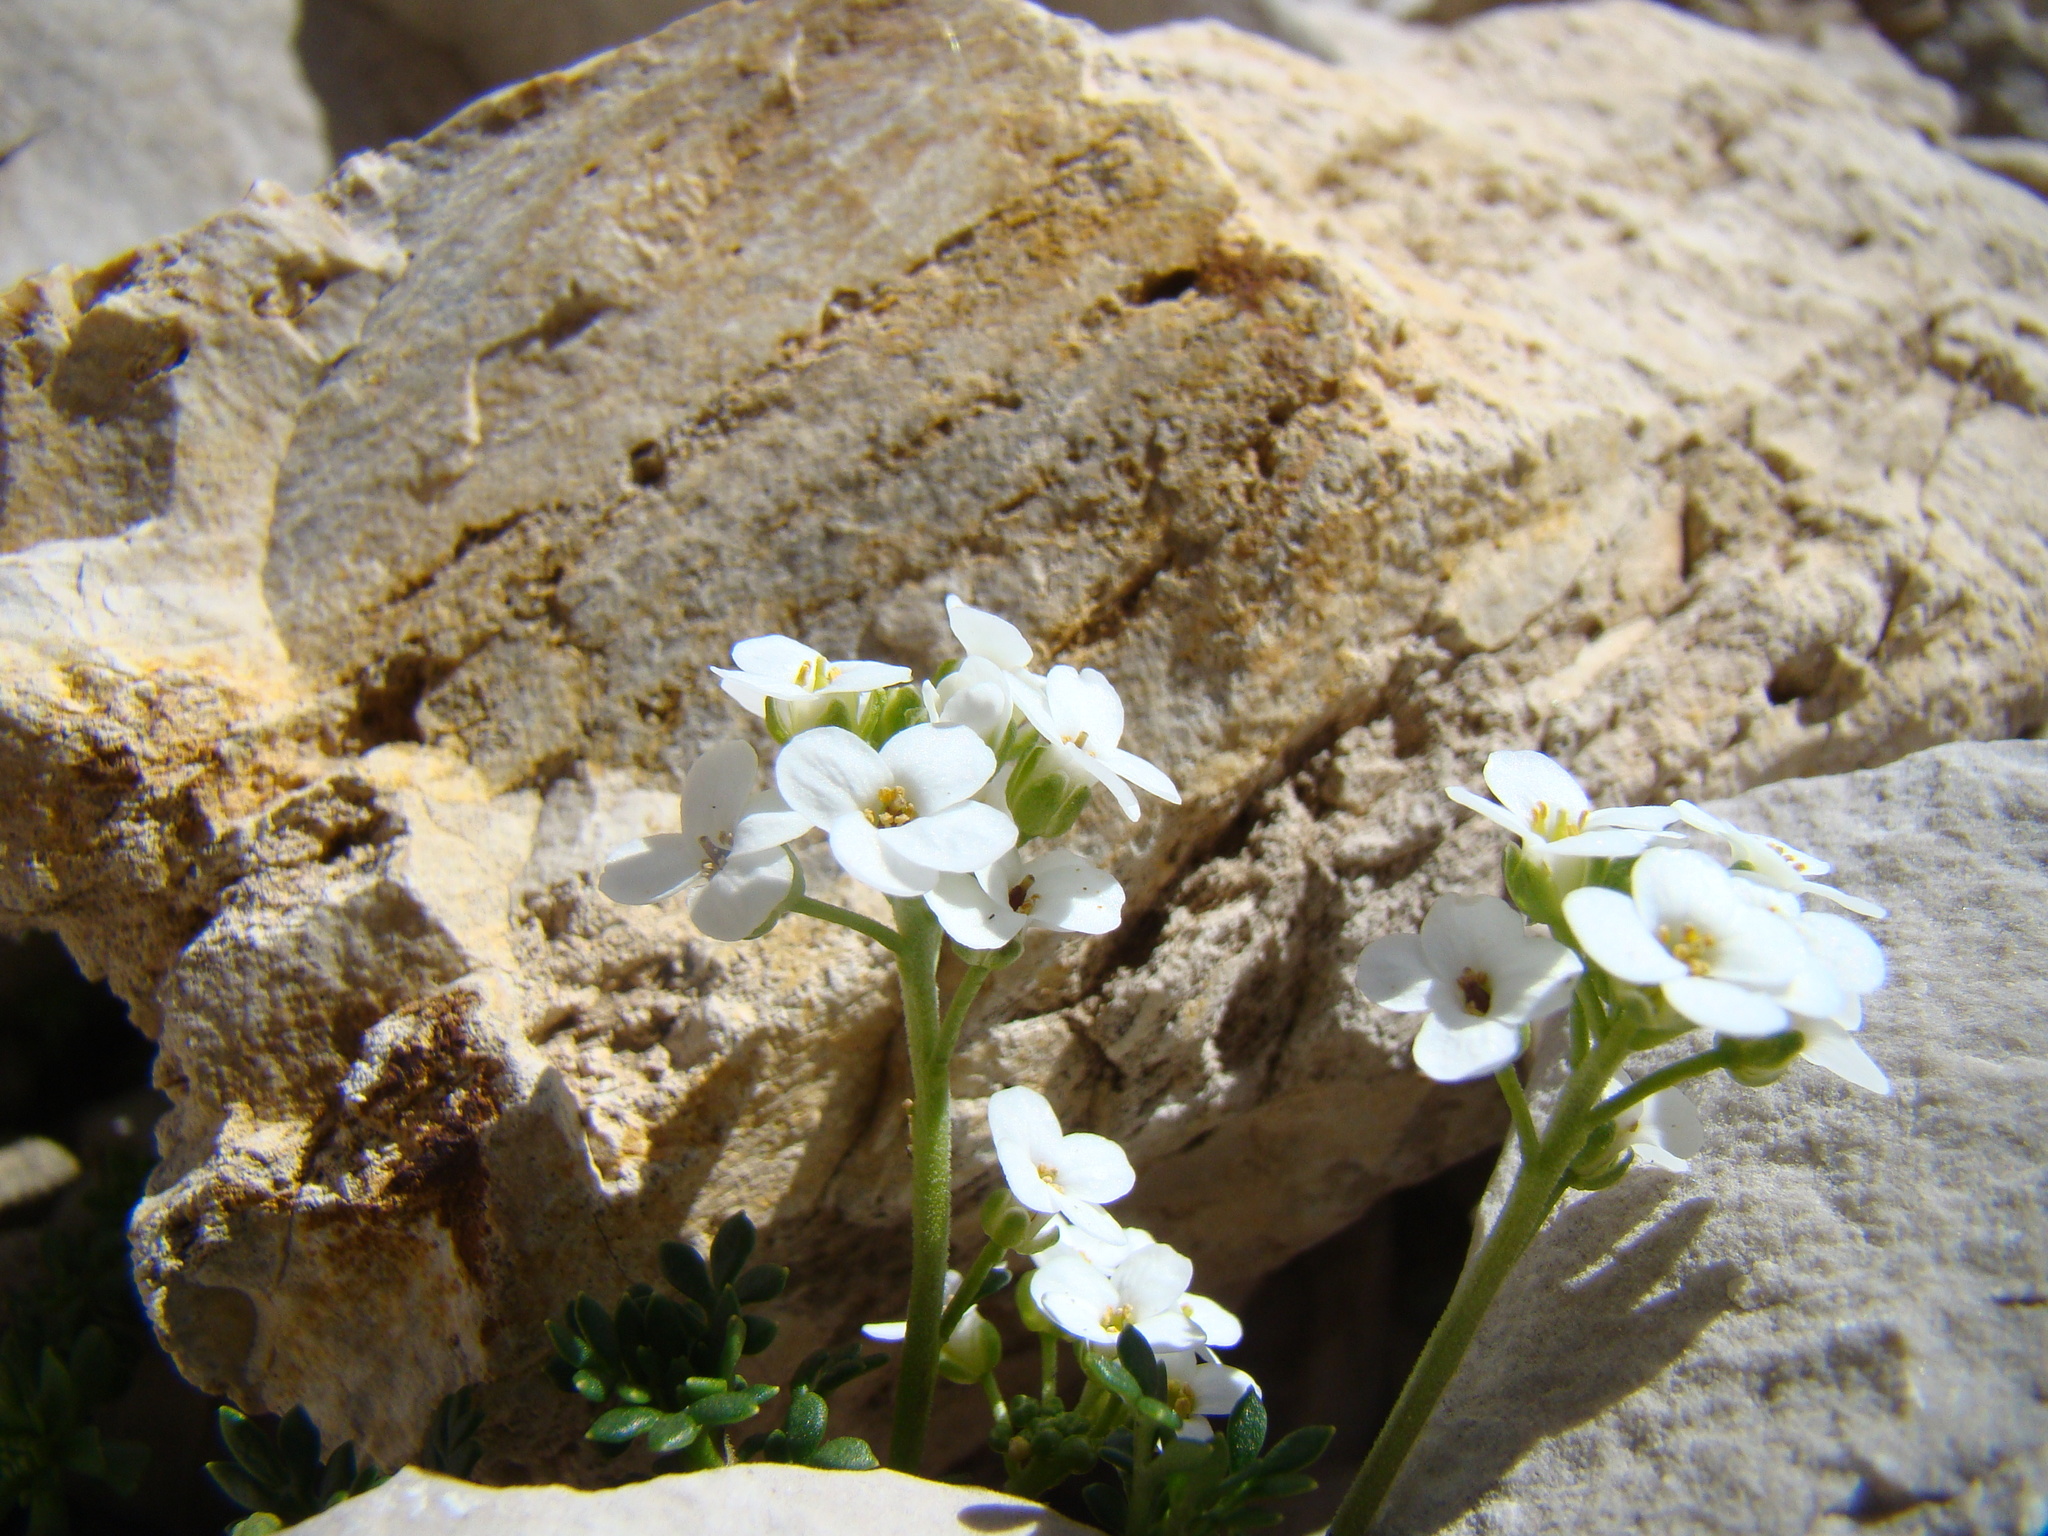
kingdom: Plantae
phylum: Tracheophyta
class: Magnoliopsida
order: Brassicales
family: Brassicaceae
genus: Hornungia
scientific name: Hornungia alpina
